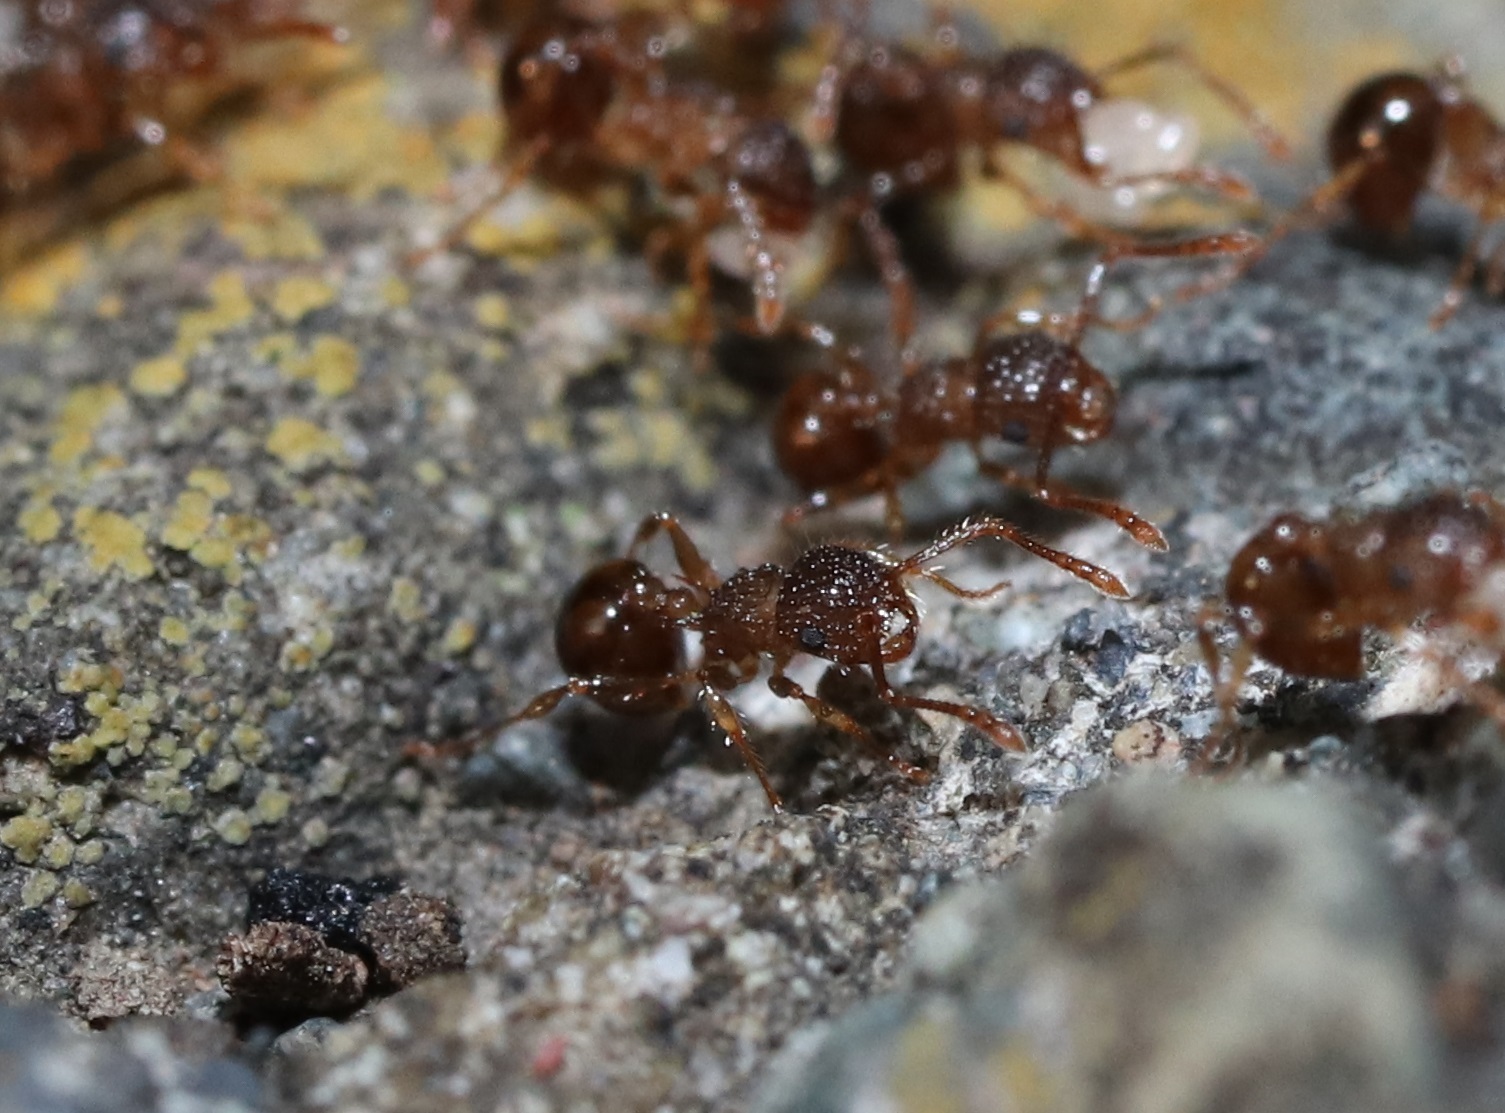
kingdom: Animalia
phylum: Arthropoda
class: Insecta
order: Hymenoptera
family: Formicidae
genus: Pristomyrmex
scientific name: Pristomyrmex punctatus
